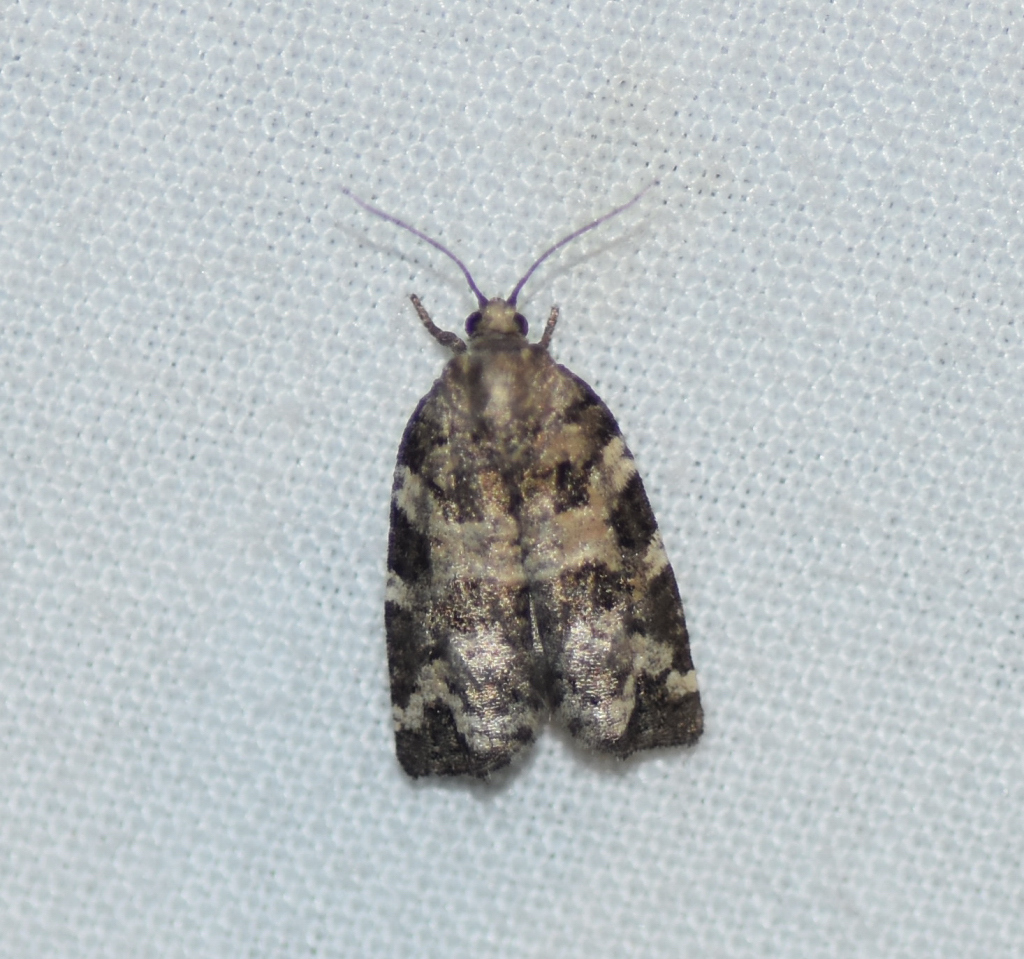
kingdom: Animalia
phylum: Arthropoda
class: Insecta
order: Lepidoptera
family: Tortricidae
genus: Archips
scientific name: Archips packardiana
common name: Spring spruce needle moth
